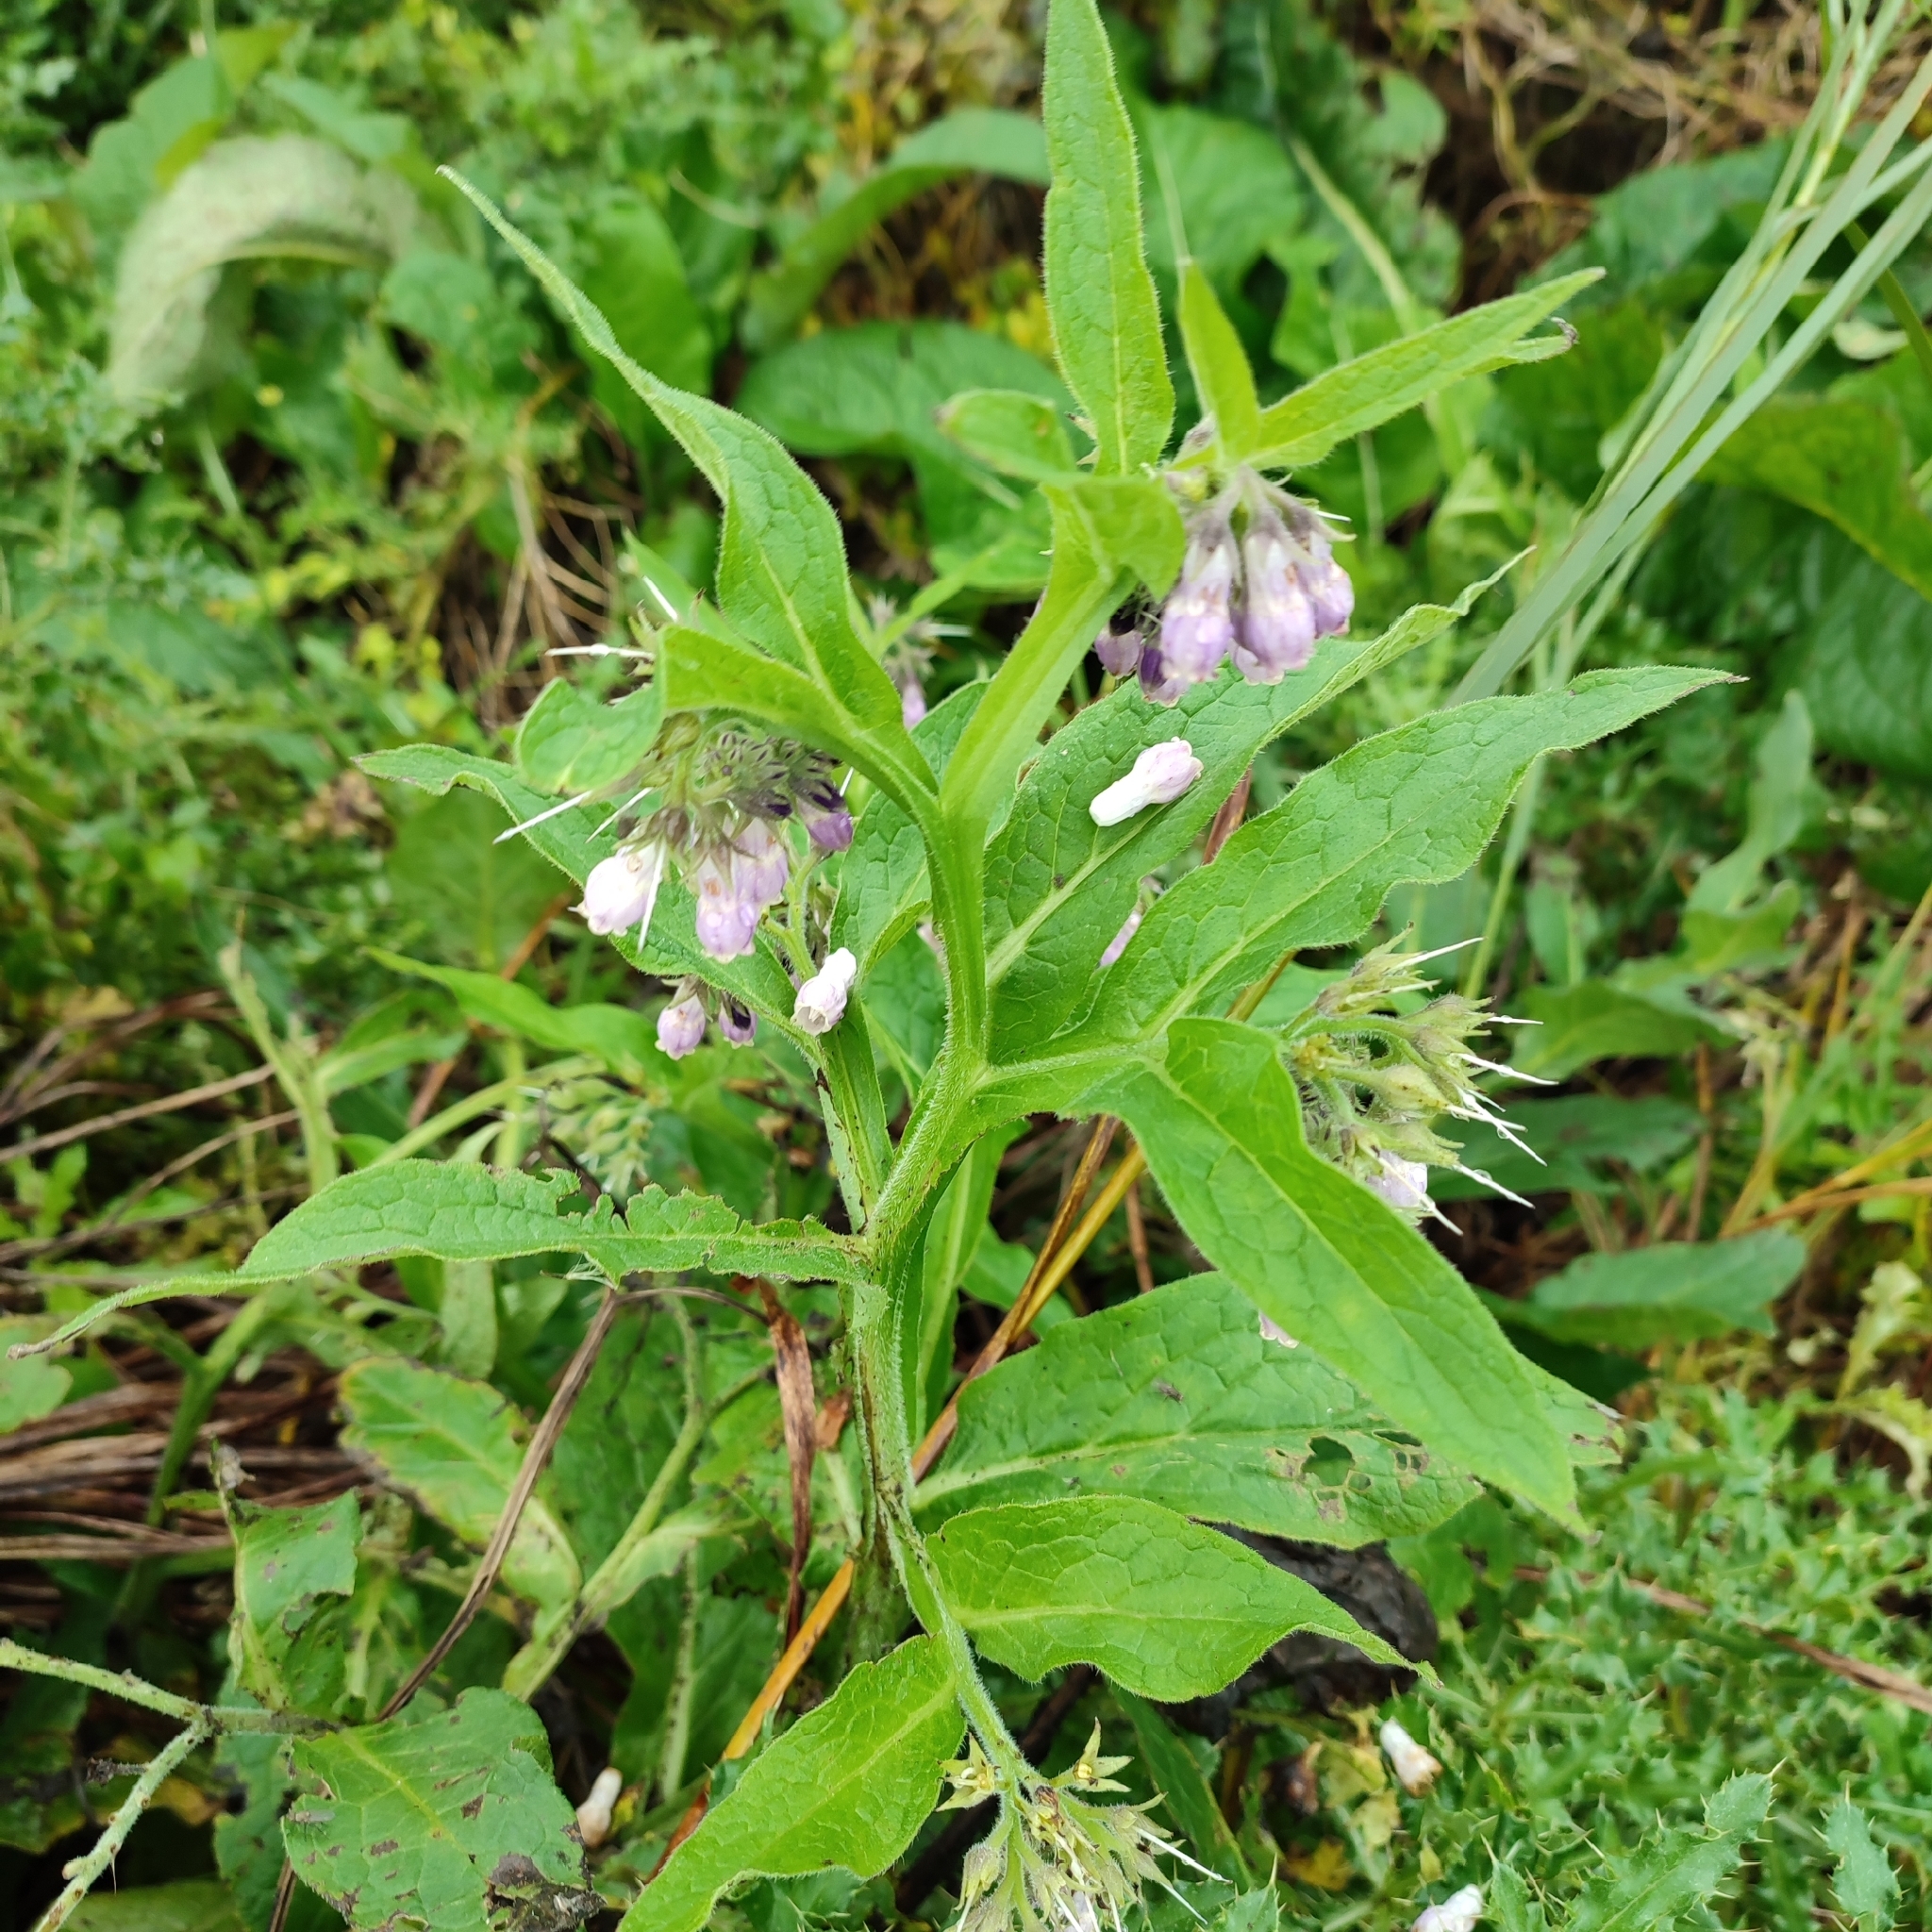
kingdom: Plantae
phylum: Tracheophyta
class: Magnoliopsida
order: Boraginales
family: Boraginaceae
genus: Symphytum
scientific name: Symphytum officinale
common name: Common comfrey
